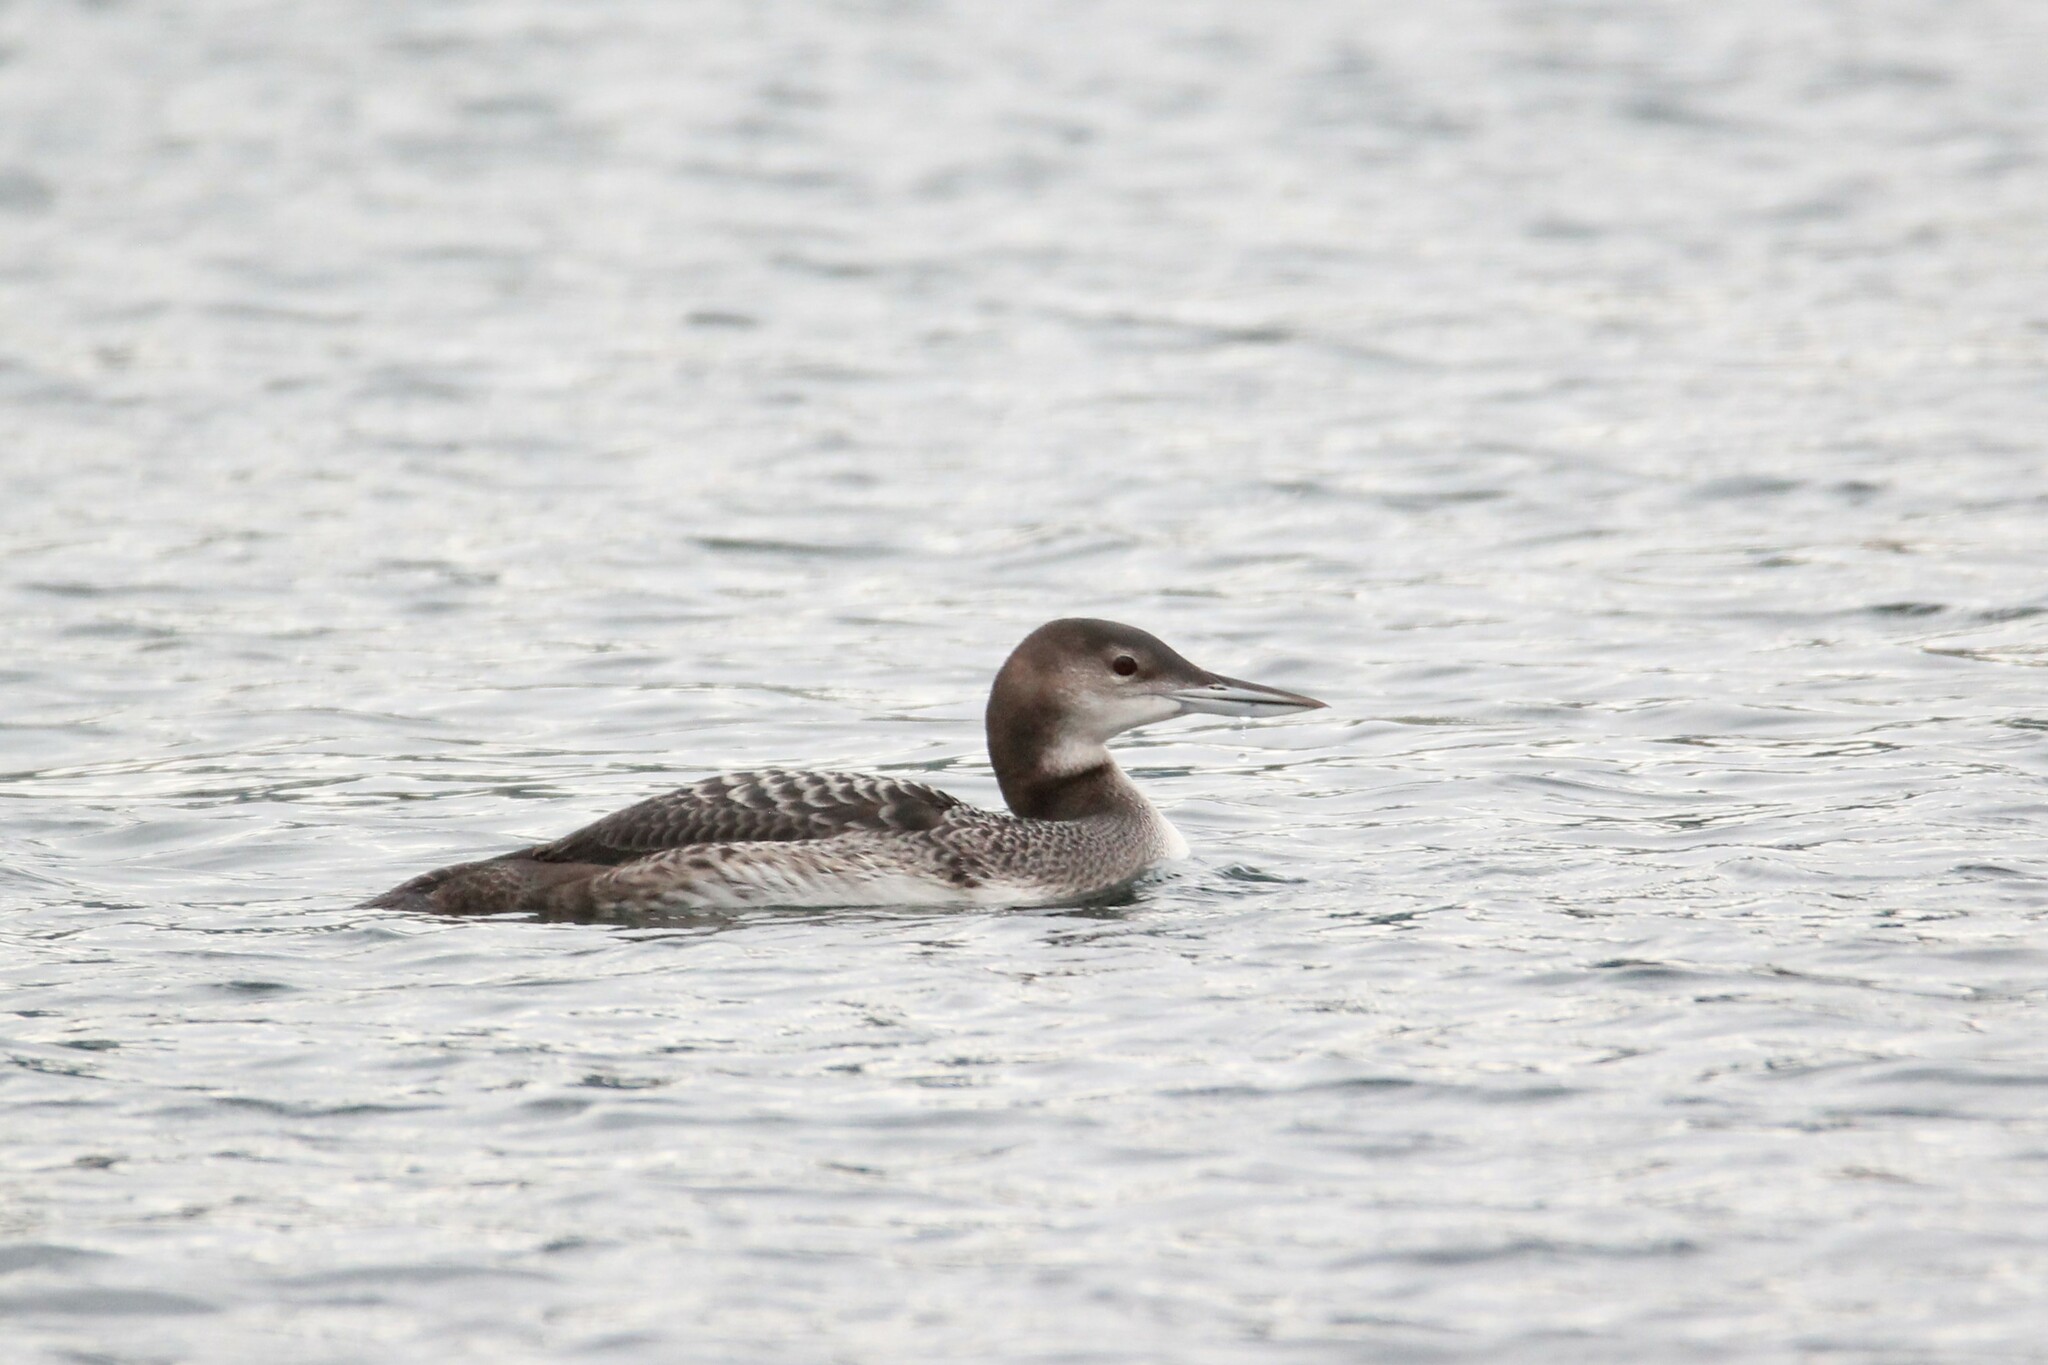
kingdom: Animalia
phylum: Chordata
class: Aves
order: Gaviiformes
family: Gaviidae
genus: Gavia
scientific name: Gavia immer
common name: Common loon
